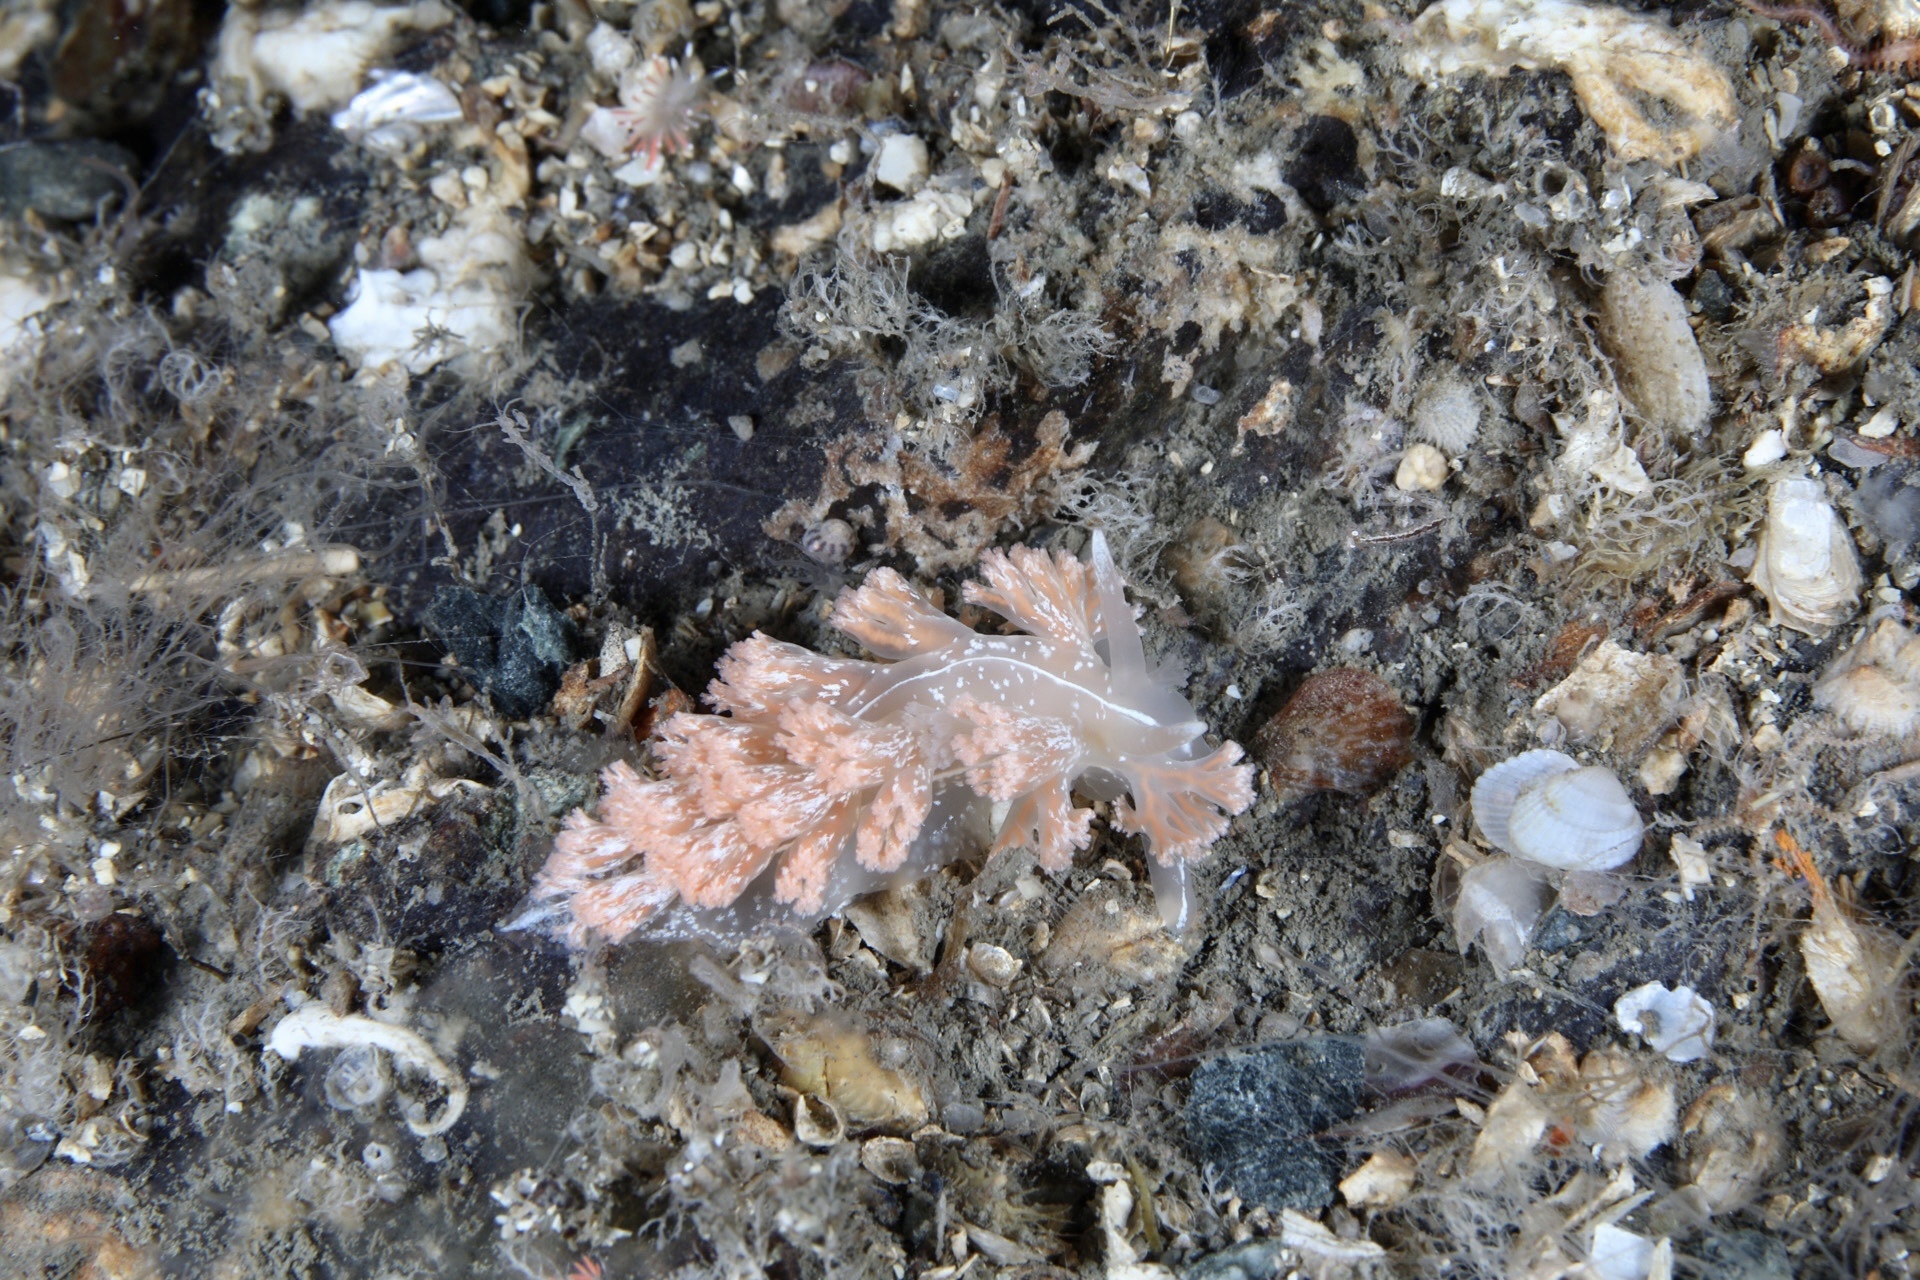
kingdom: Animalia
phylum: Mollusca
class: Gastropoda
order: Nudibranchia
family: Heroidae
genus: Hero
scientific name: Hero formosa
